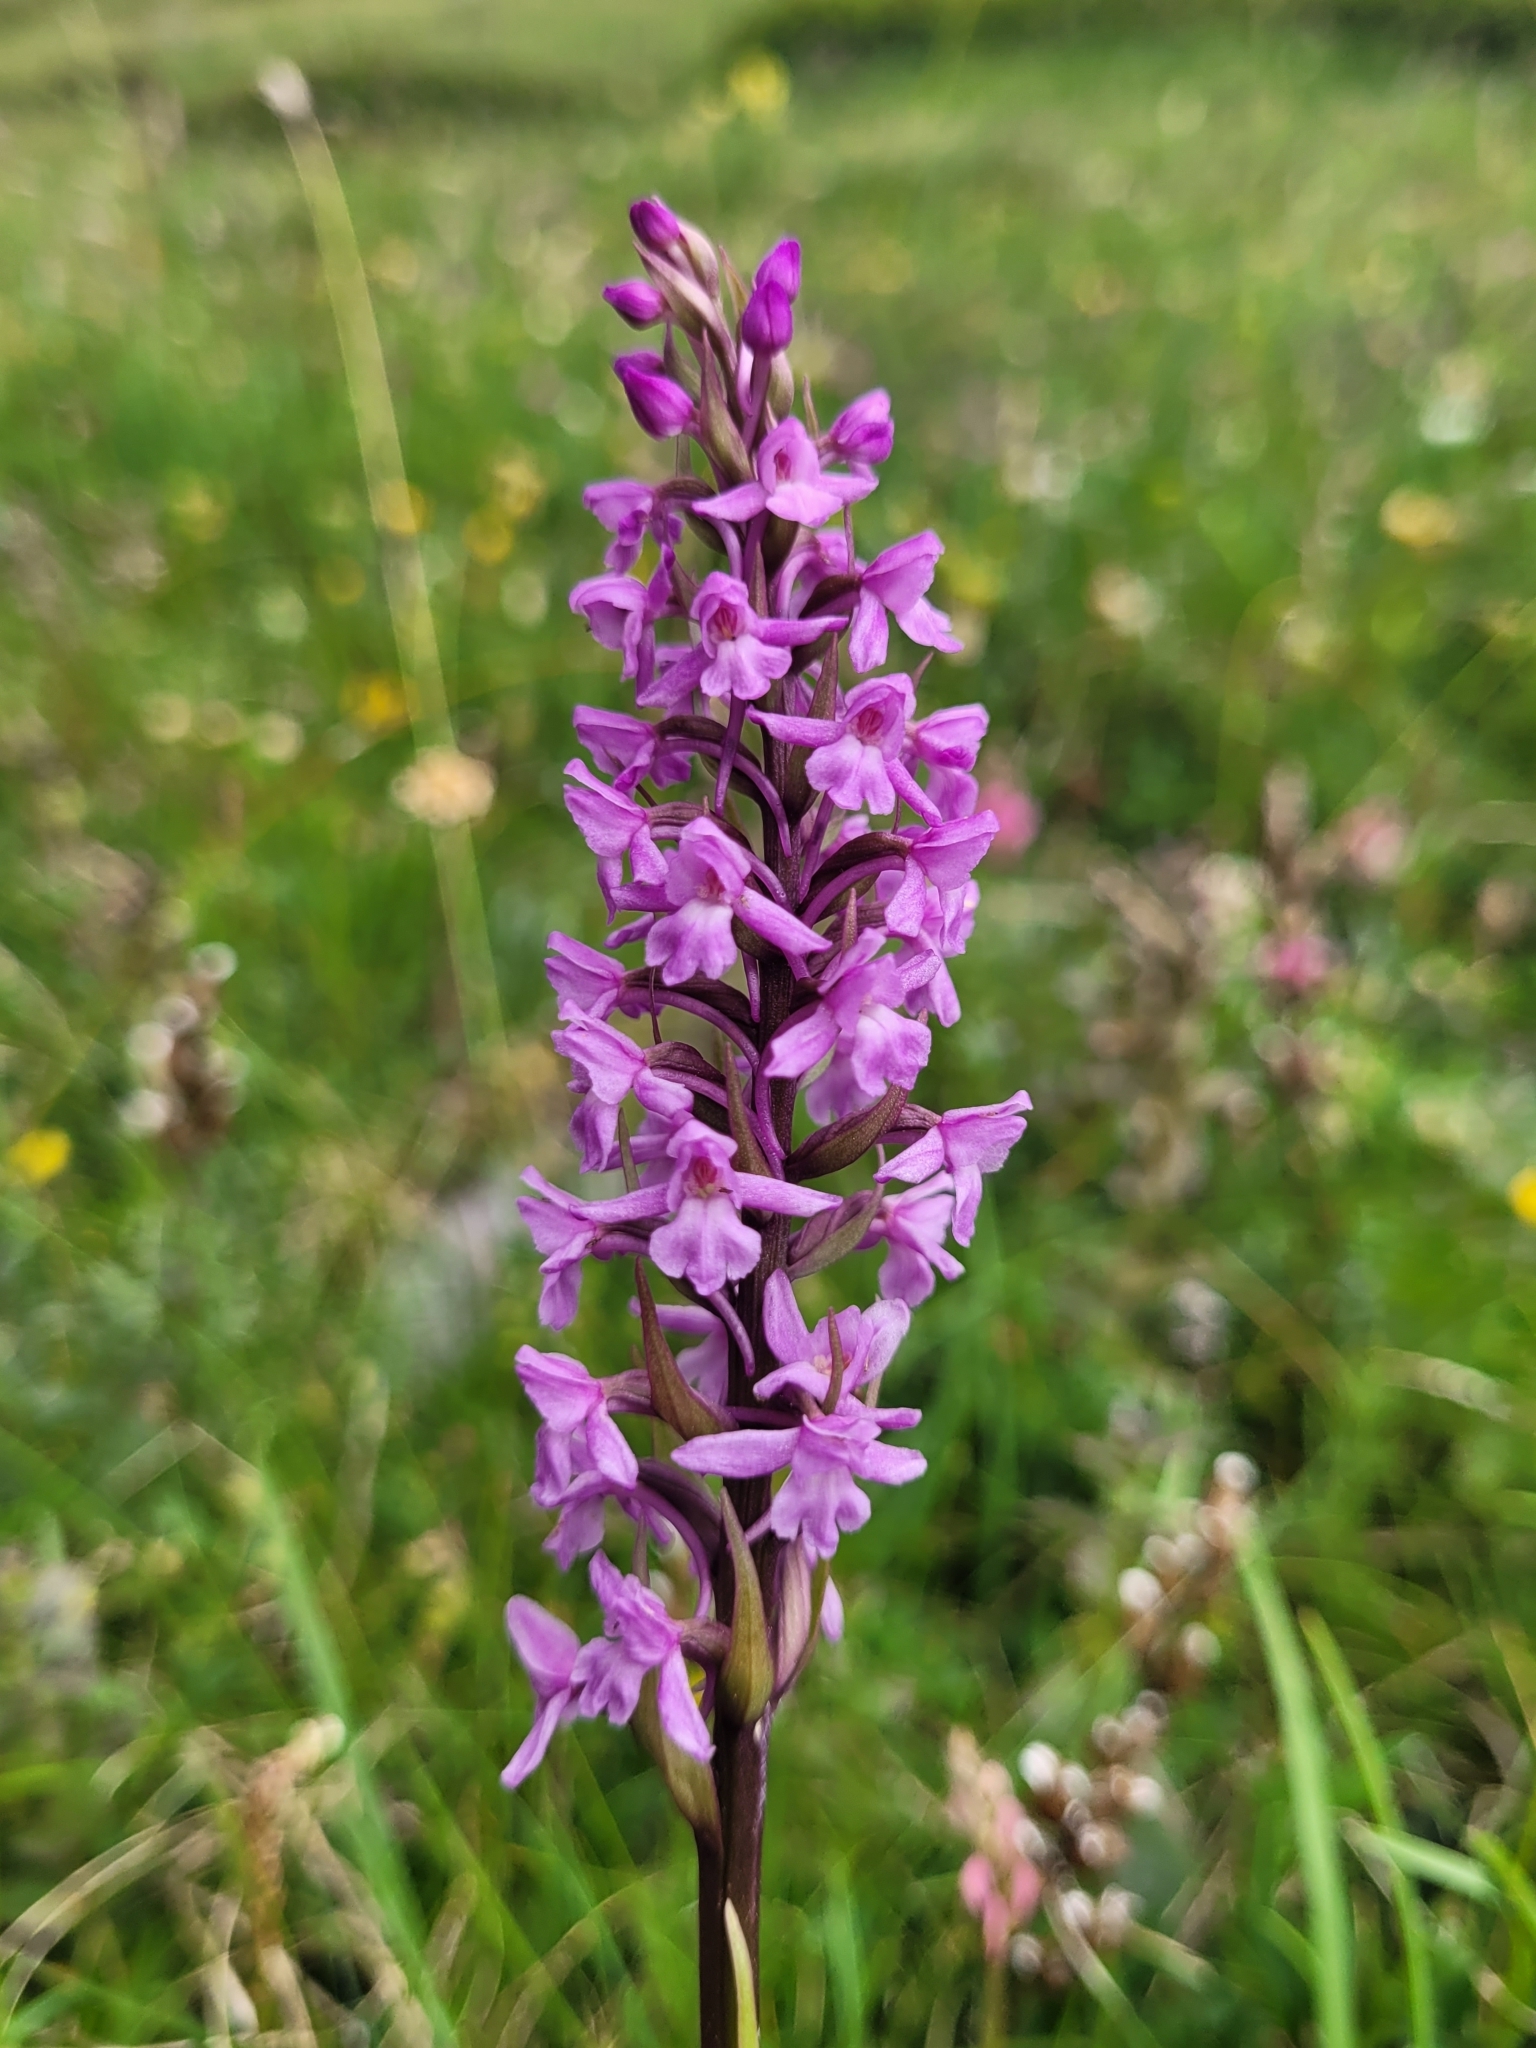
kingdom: Plantae
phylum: Tracheophyta
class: Liliopsida
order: Asparagales
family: Orchidaceae
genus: Gymnadenia
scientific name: Gymnadenia conopsea
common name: Fragrant orchid
